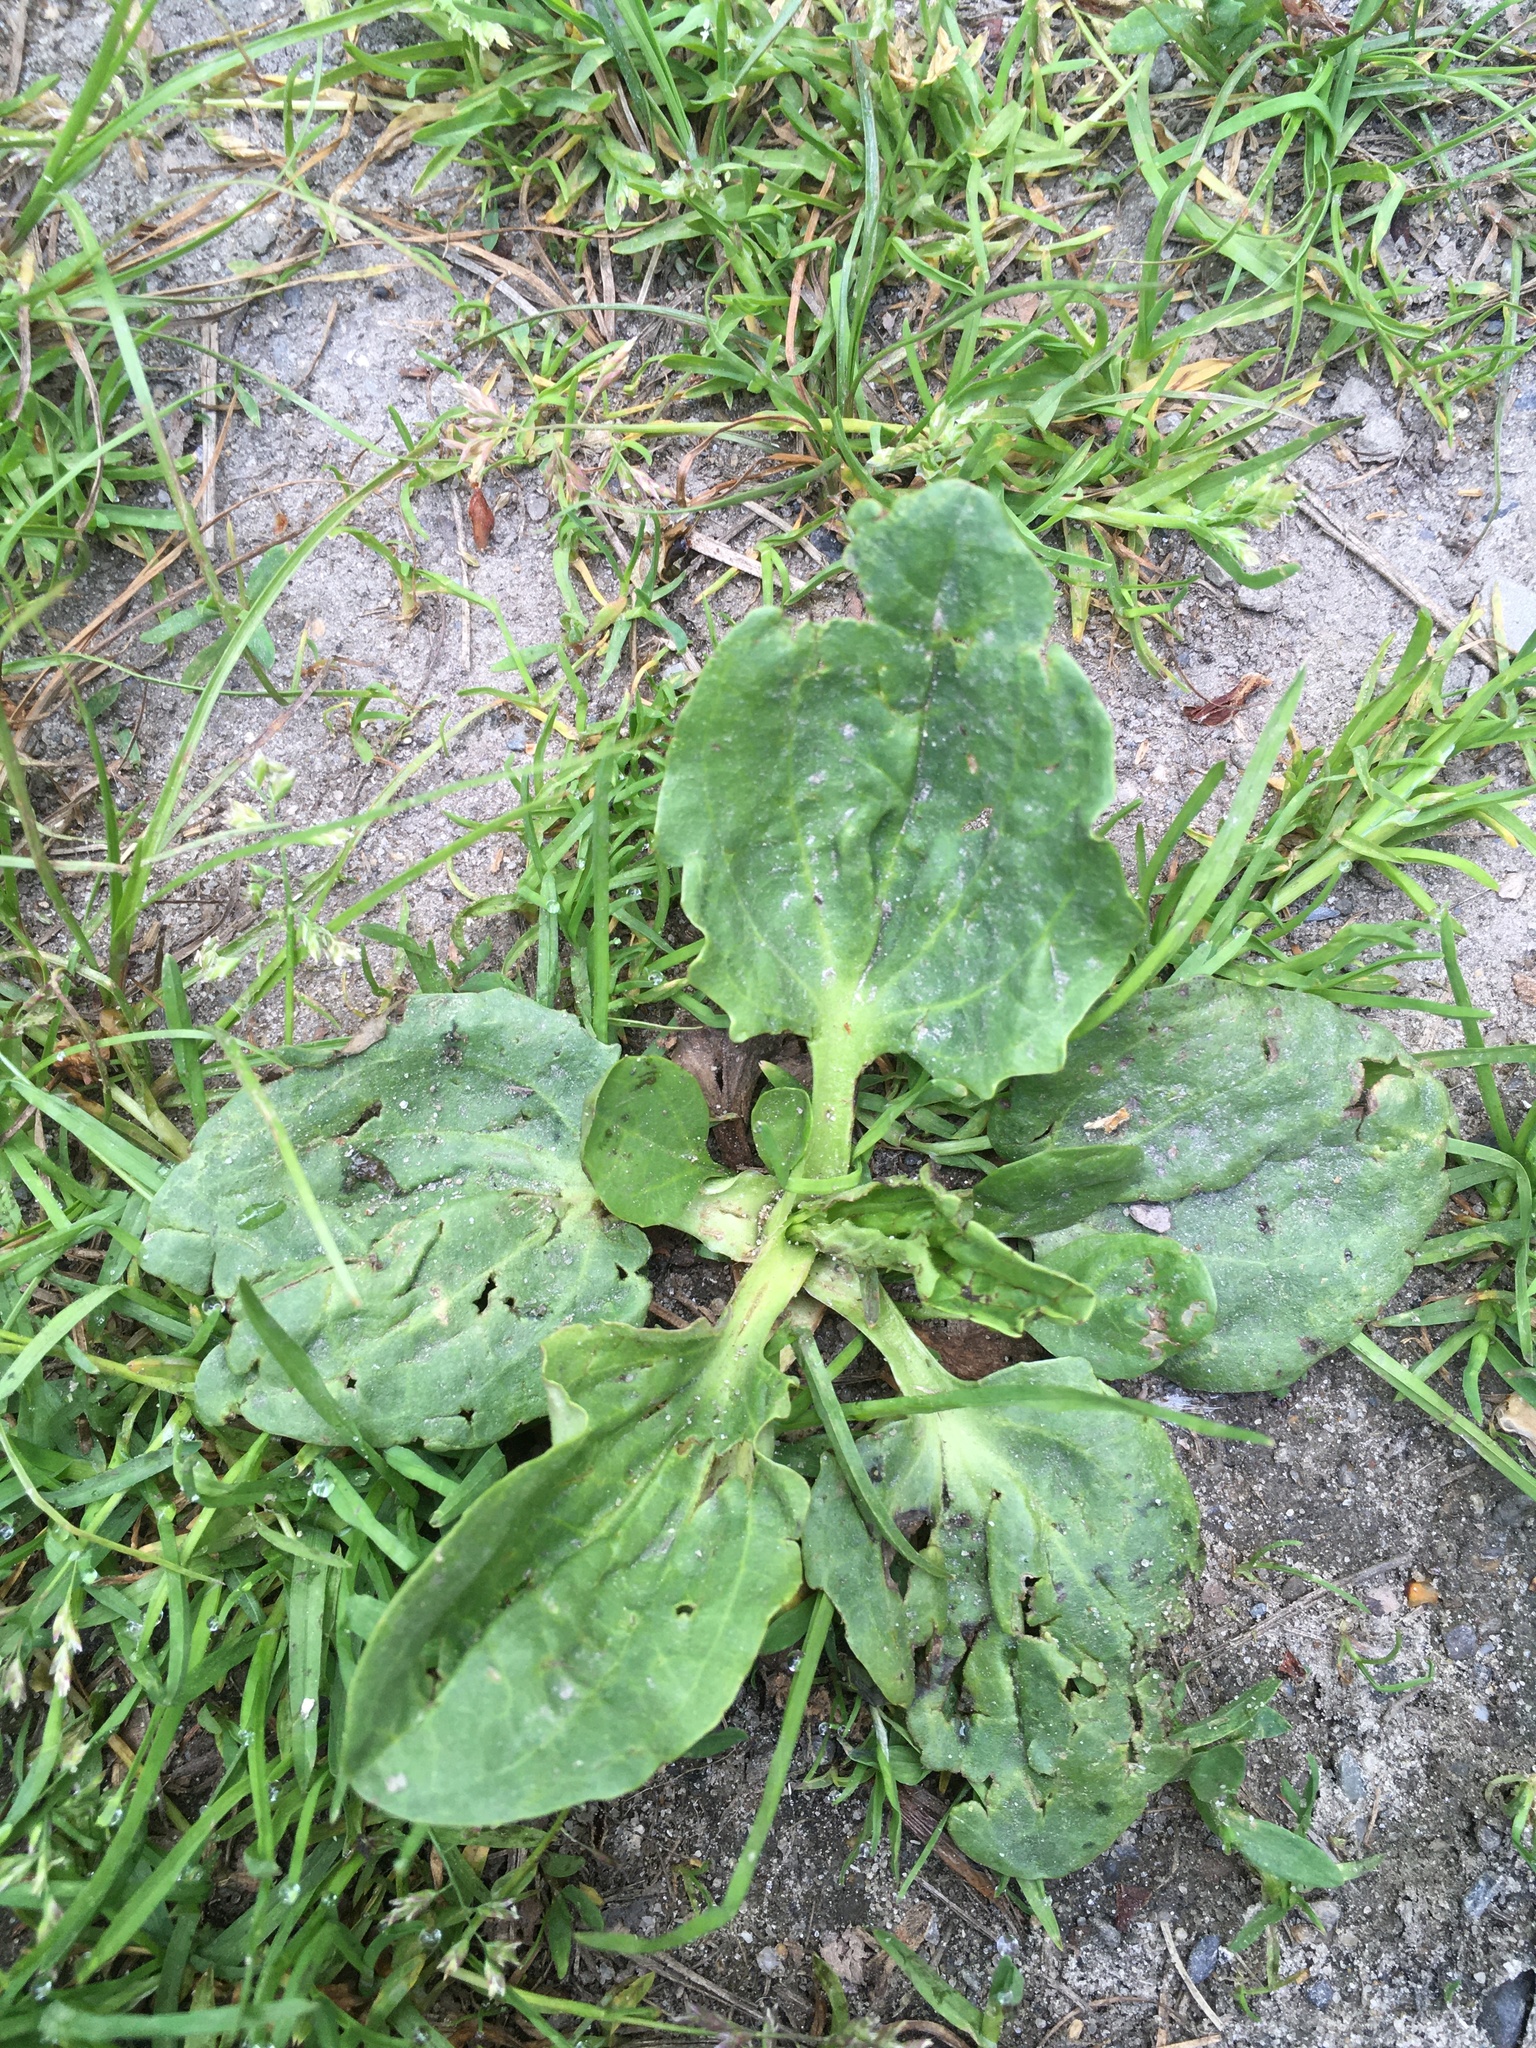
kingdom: Plantae
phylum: Tracheophyta
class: Magnoliopsida
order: Lamiales
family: Plantaginaceae
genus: Plantago
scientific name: Plantago major
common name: Common plantain
